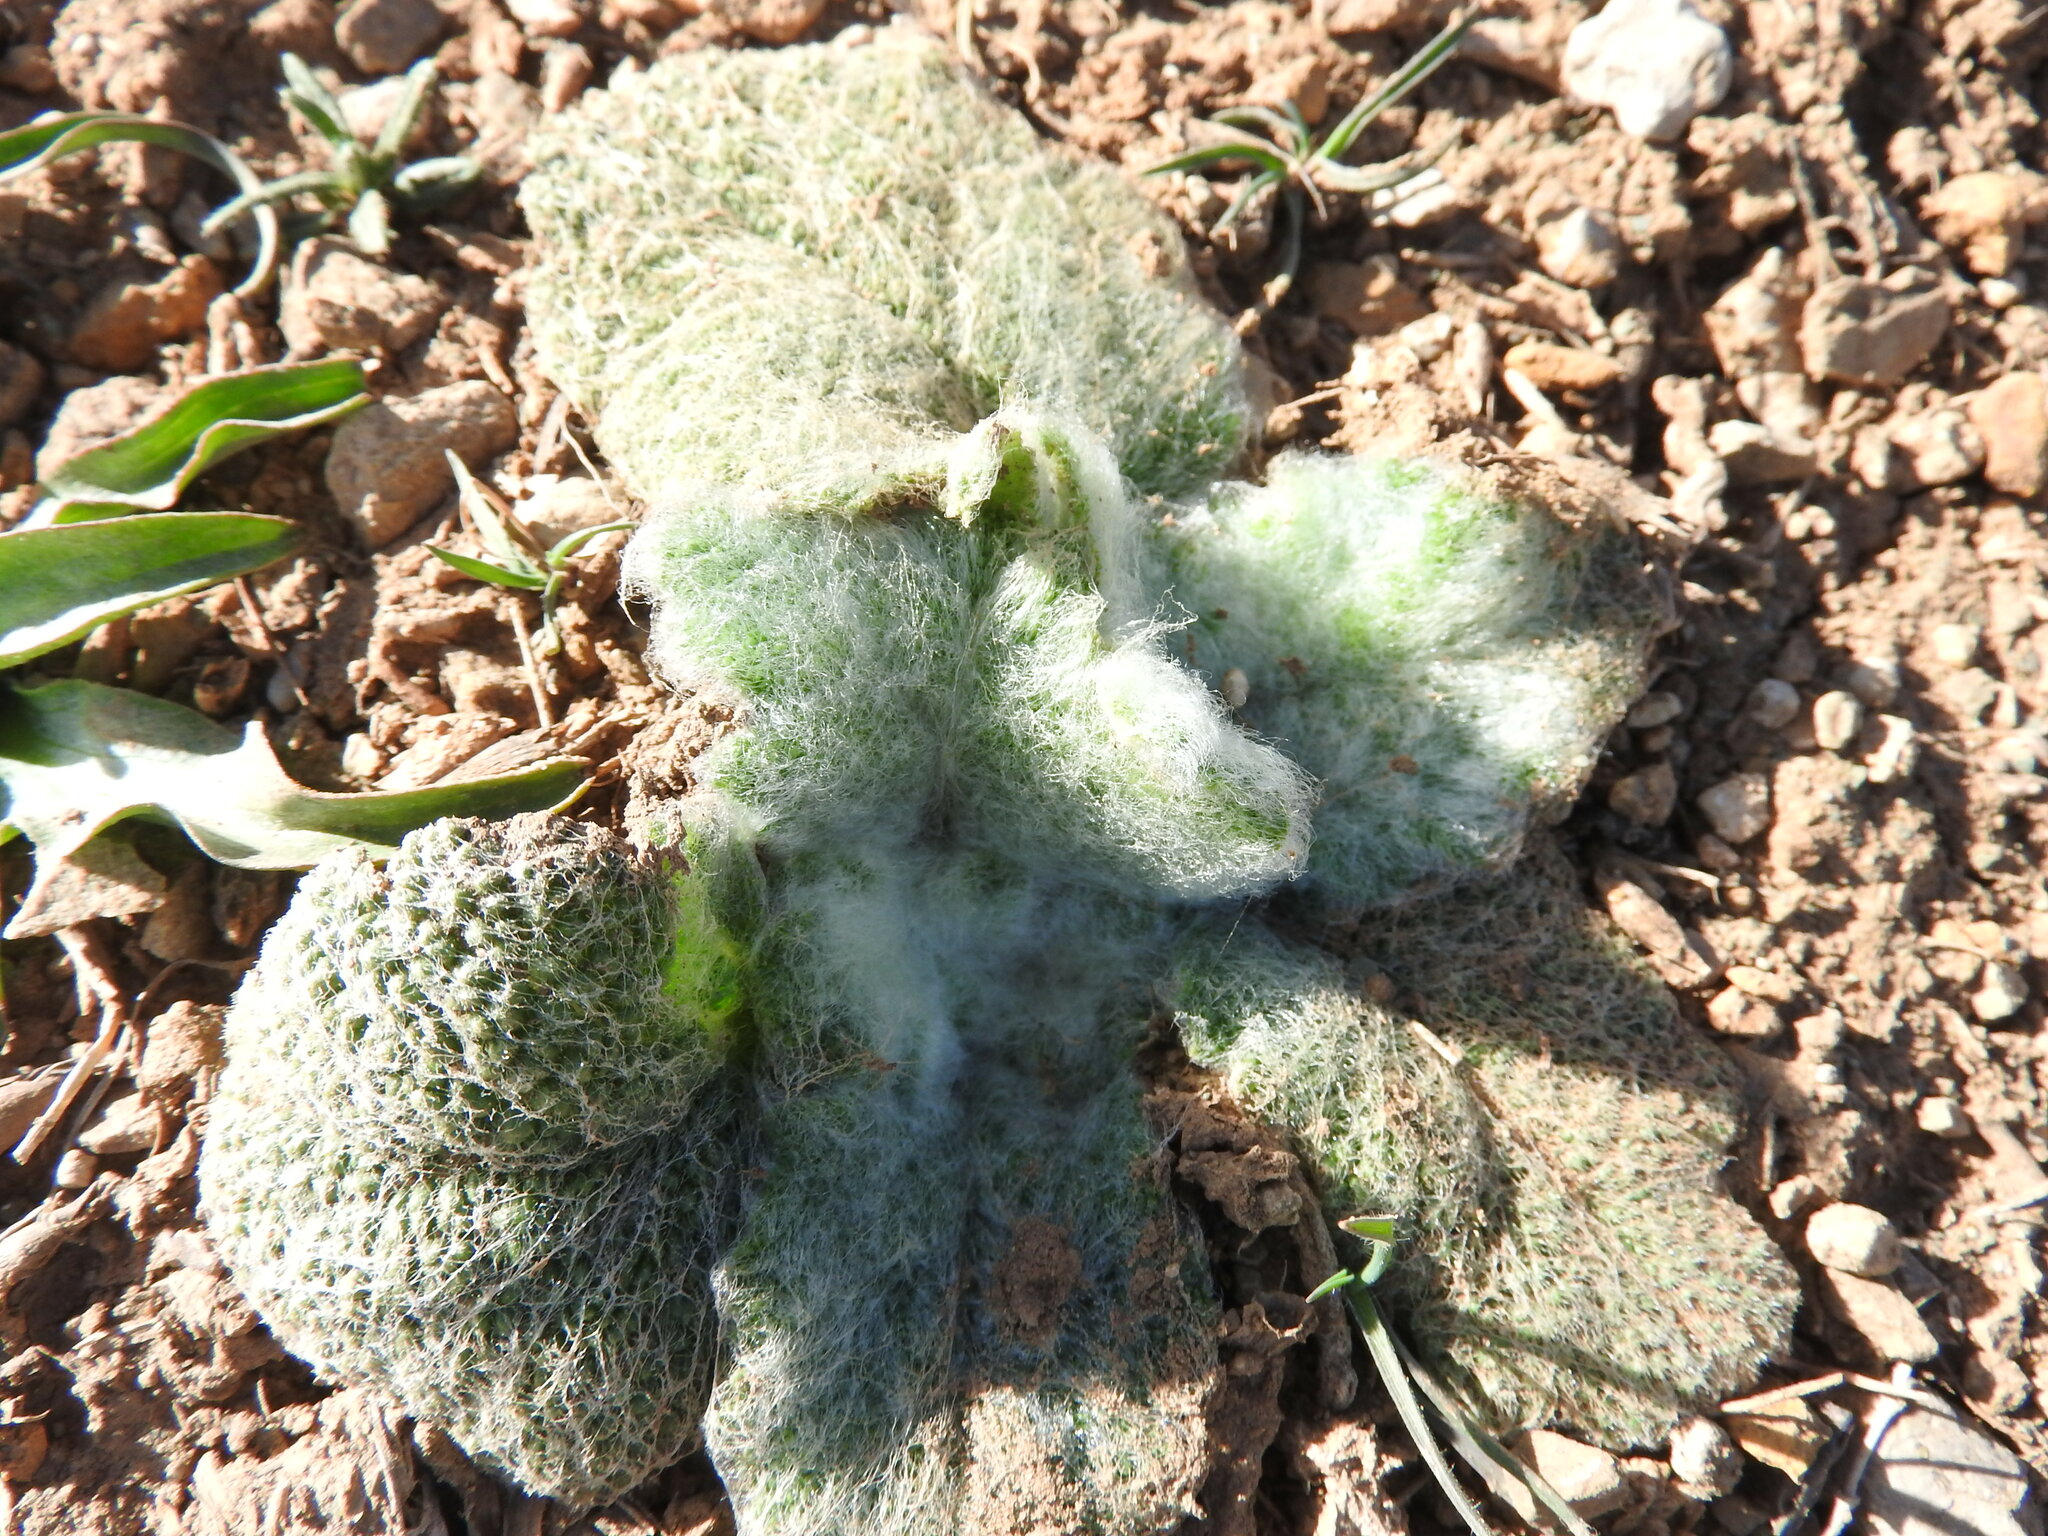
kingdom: Plantae
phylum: Tracheophyta
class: Magnoliopsida
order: Lamiales
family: Lamiaceae
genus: Salvia
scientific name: Salvia argentea
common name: Silver sage
